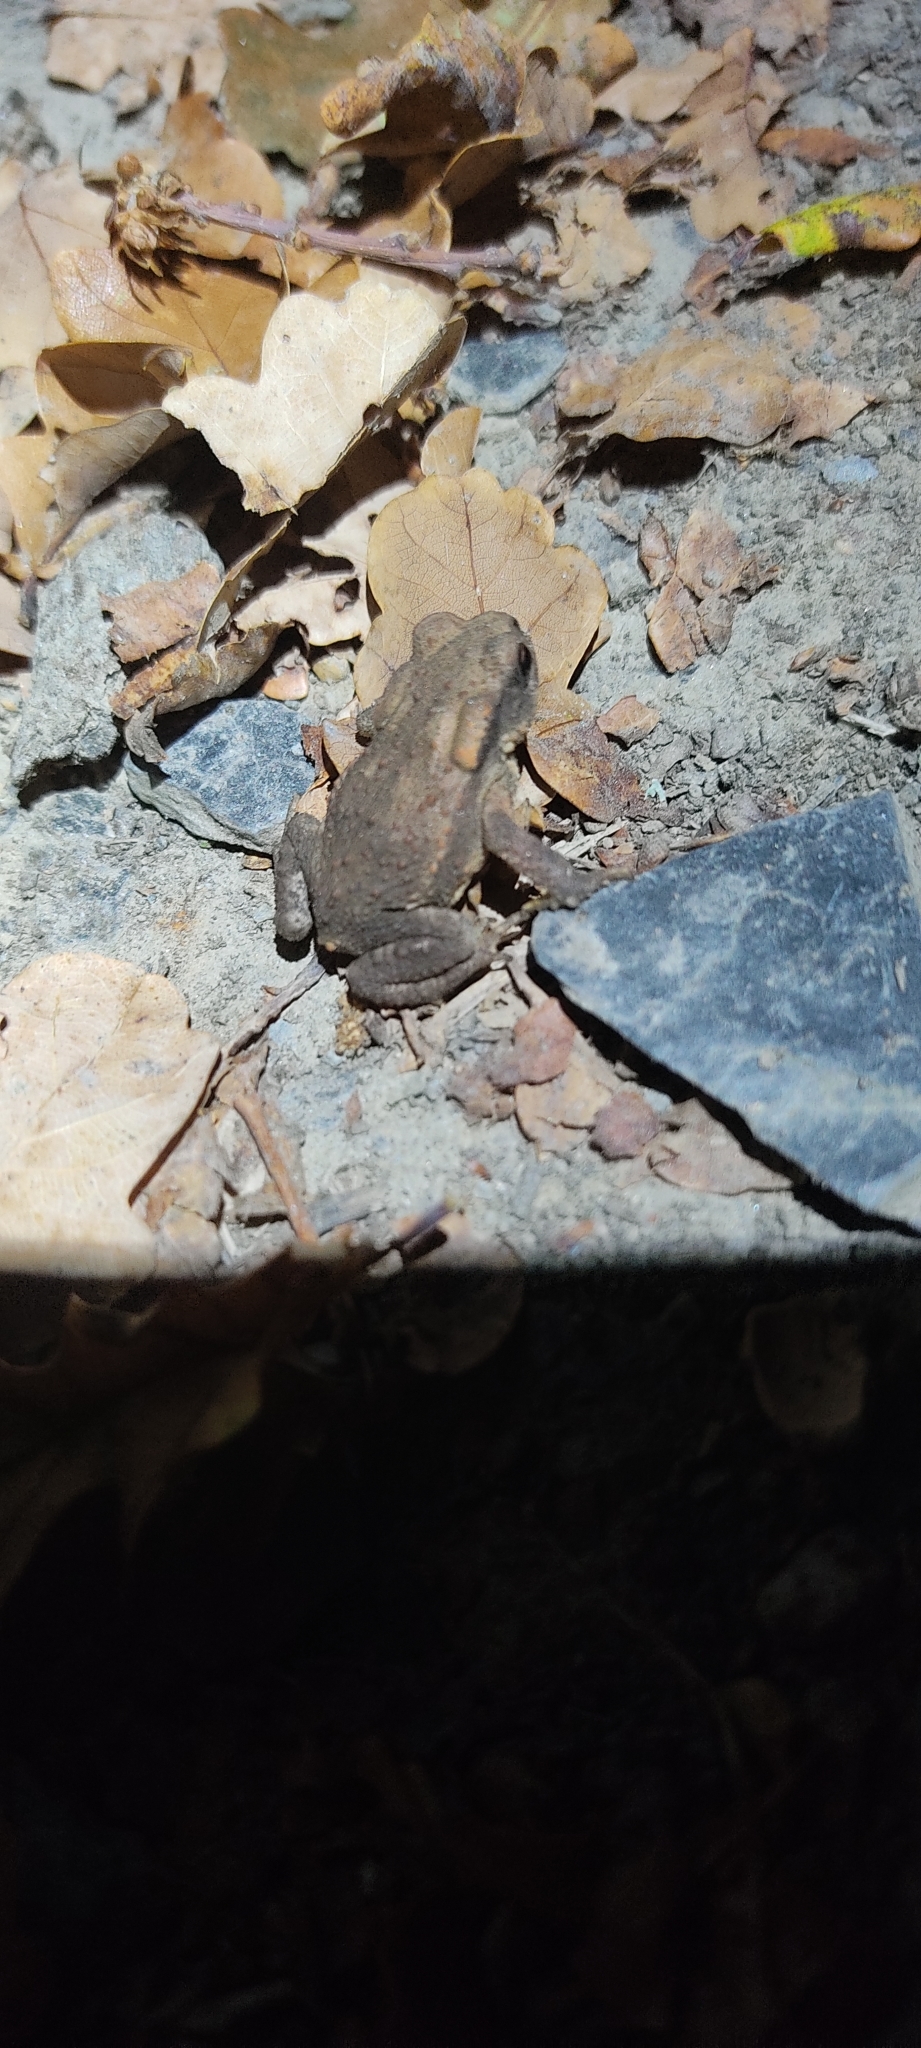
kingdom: Animalia
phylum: Chordata
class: Amphibia
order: Anura
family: Bufonidae
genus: Bufo
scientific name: Bufo spinosus
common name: Western common toad
